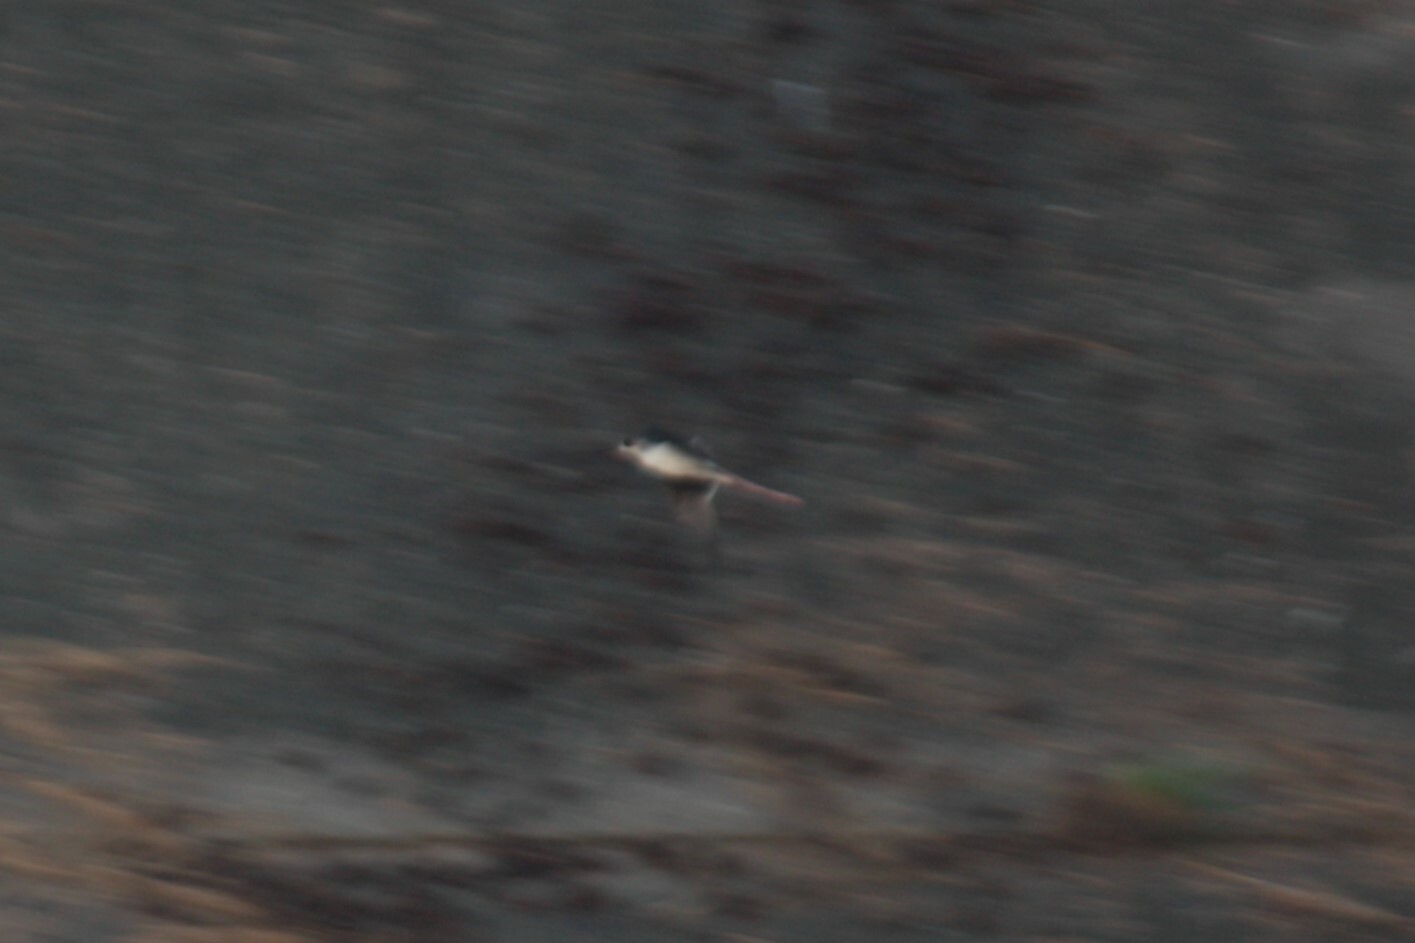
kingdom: Animalia
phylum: Chordata
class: Aves
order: Charadriiformes
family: Recurvirostridae
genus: Himantopus
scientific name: Himantopus himantopus
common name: Black-winged stilt
